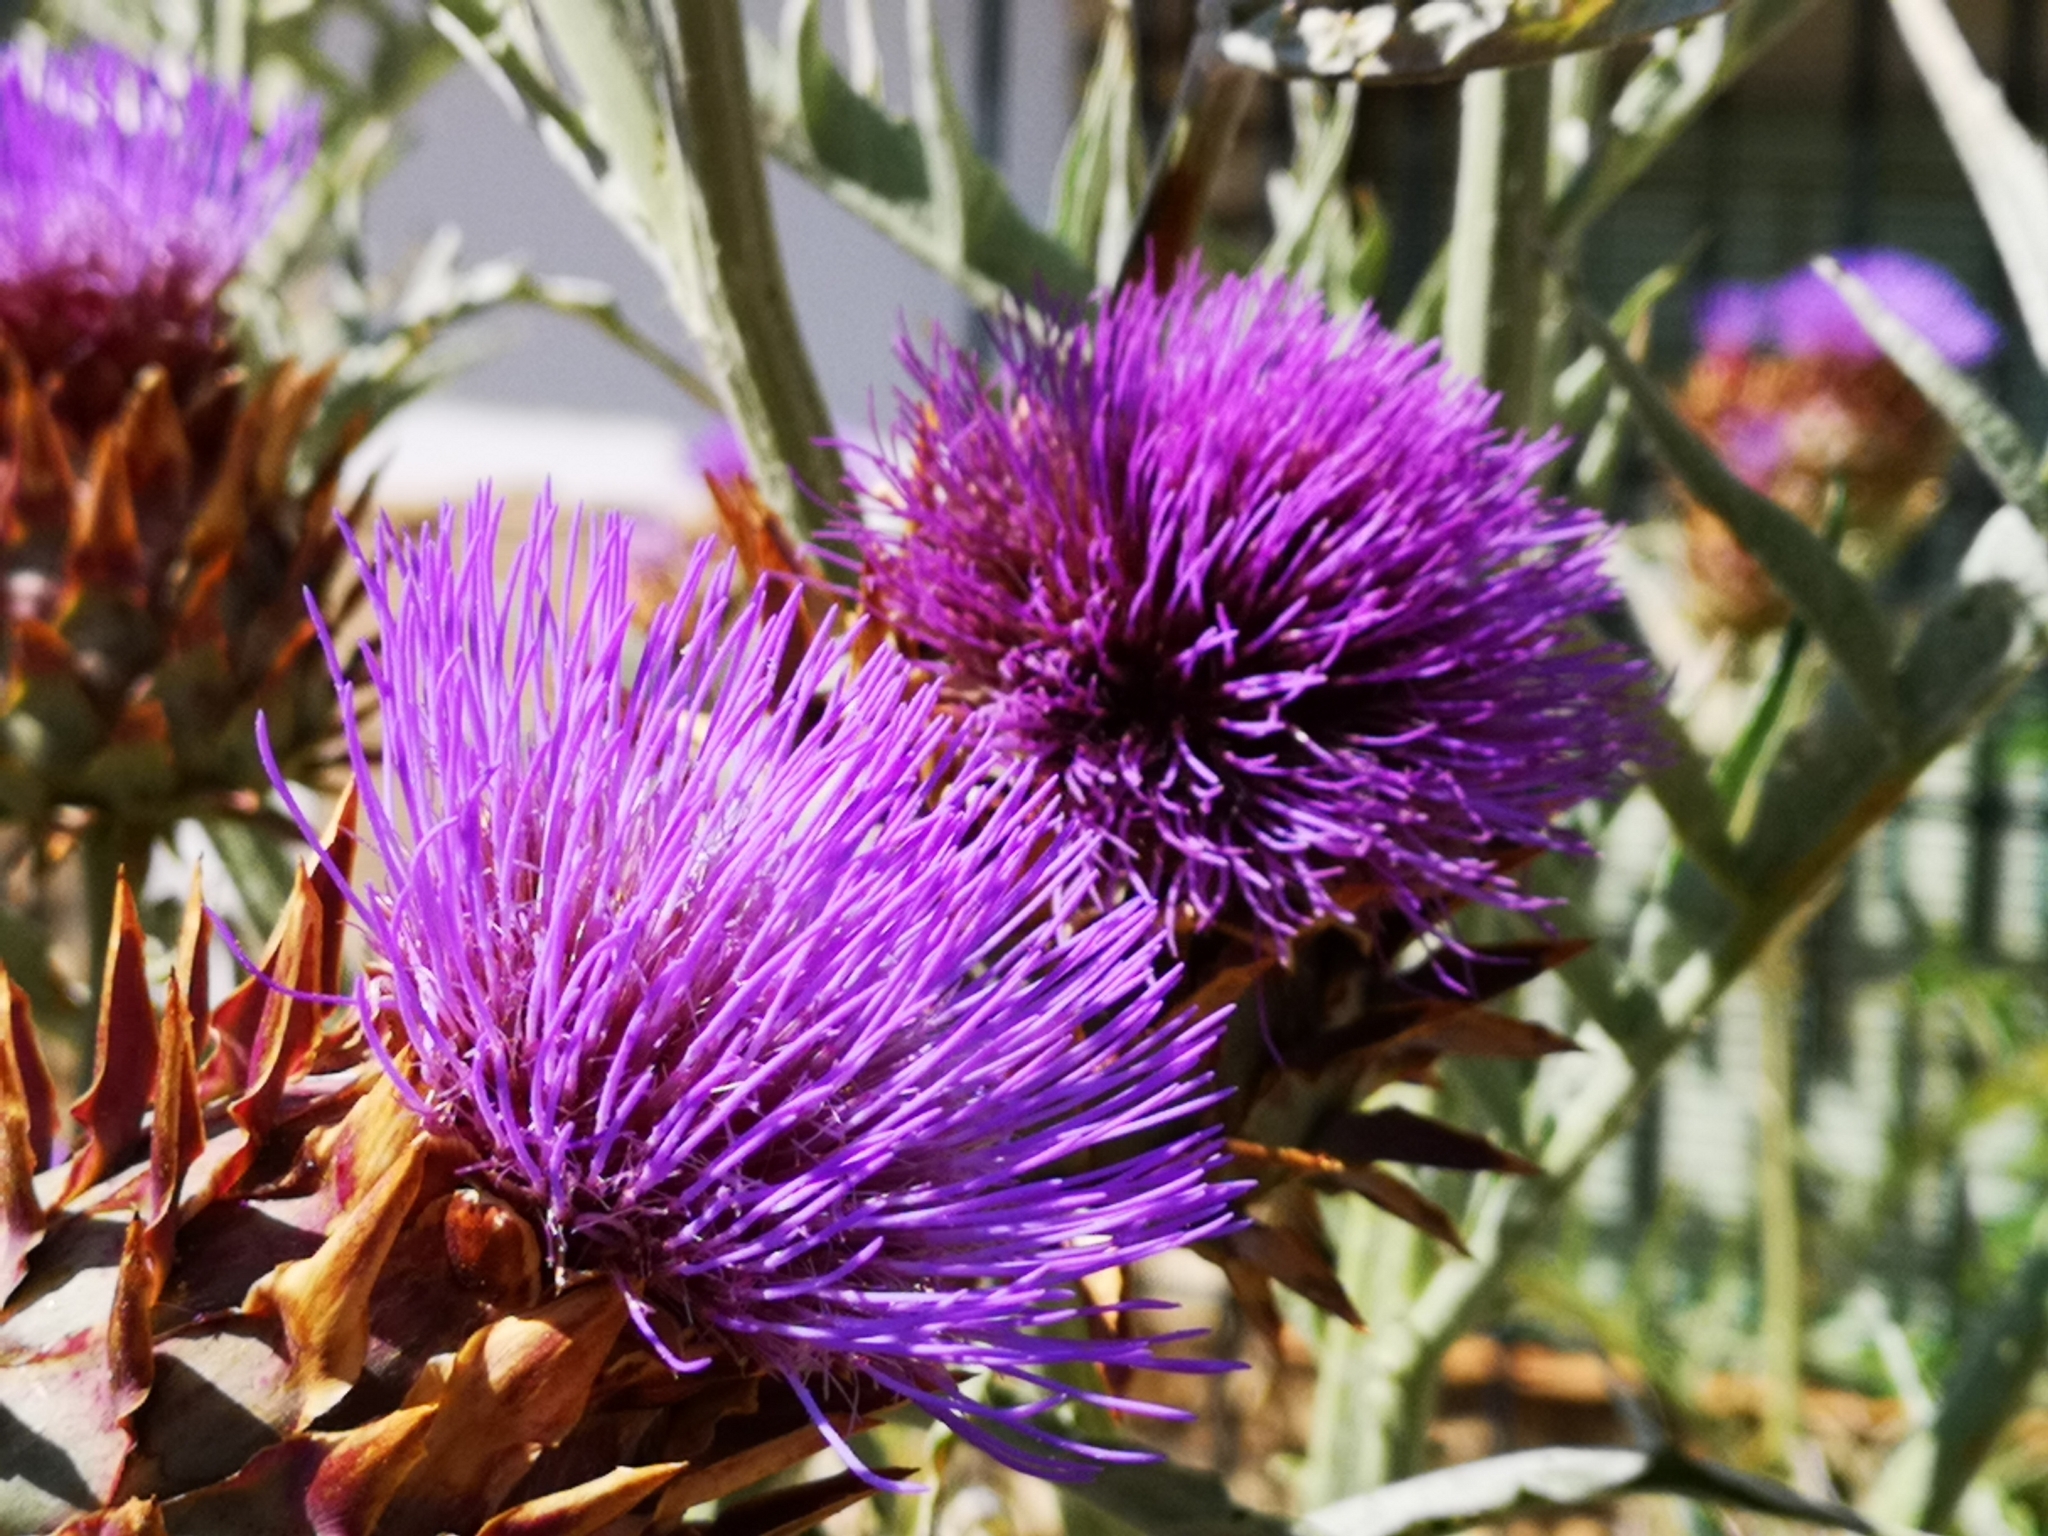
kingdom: Plantae
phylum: Tracheophyta
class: Magnoliopsida
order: Asterales
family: Asteraceae
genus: Cynara
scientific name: Cynara cardunculus
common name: Globe artichoke
